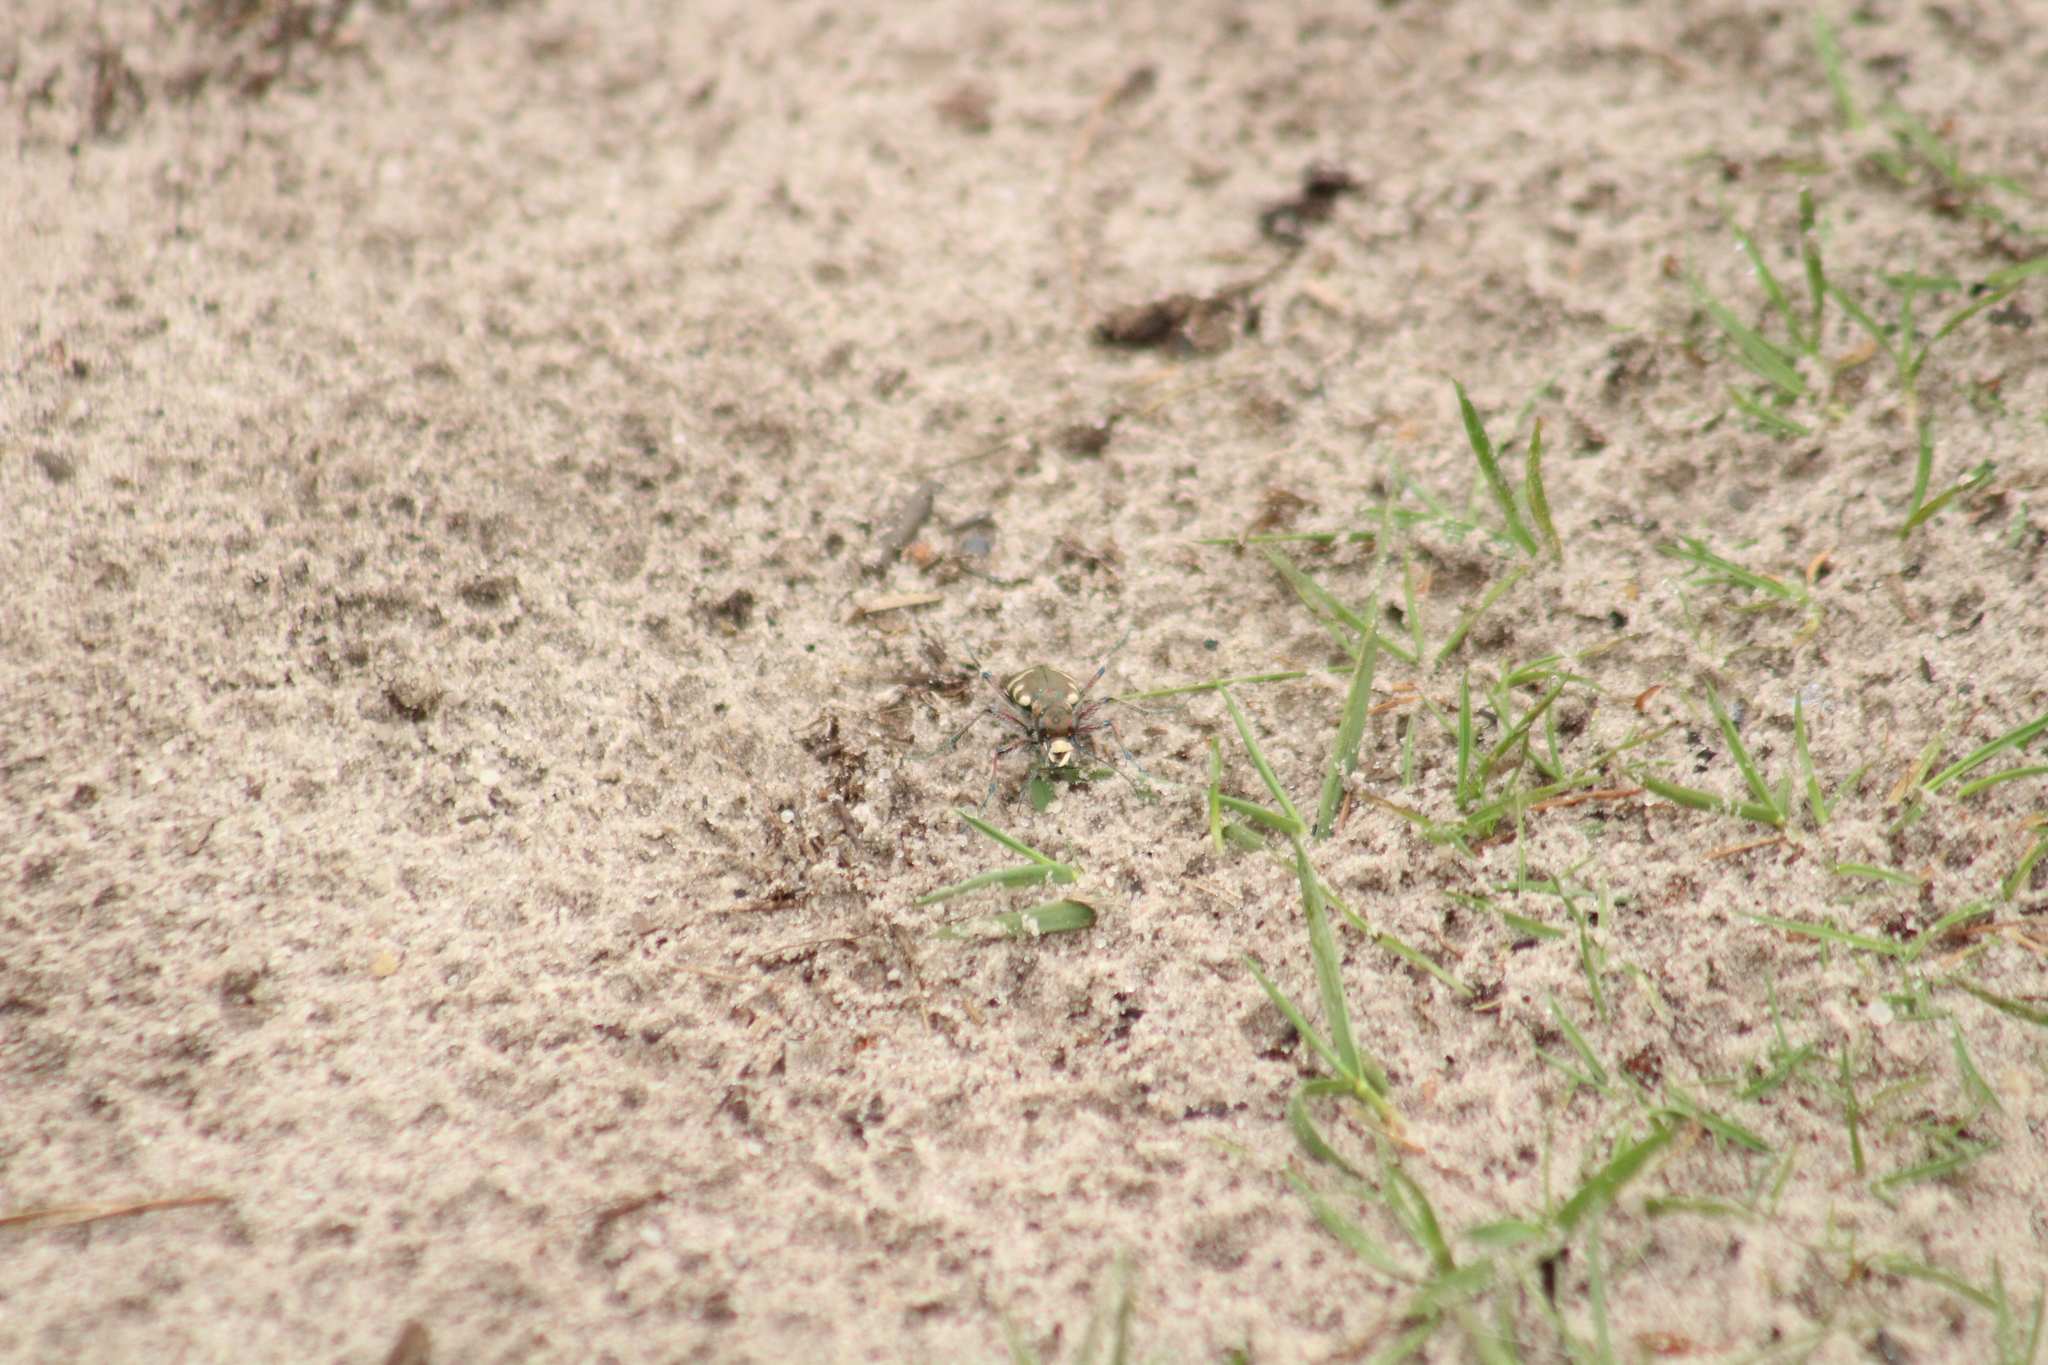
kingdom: Animalia
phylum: Arthropoda
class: Insecta
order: Coleoptera
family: Carabidae
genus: Cicindela
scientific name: Cicindela hybrida
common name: Northern dune tiger beetle
